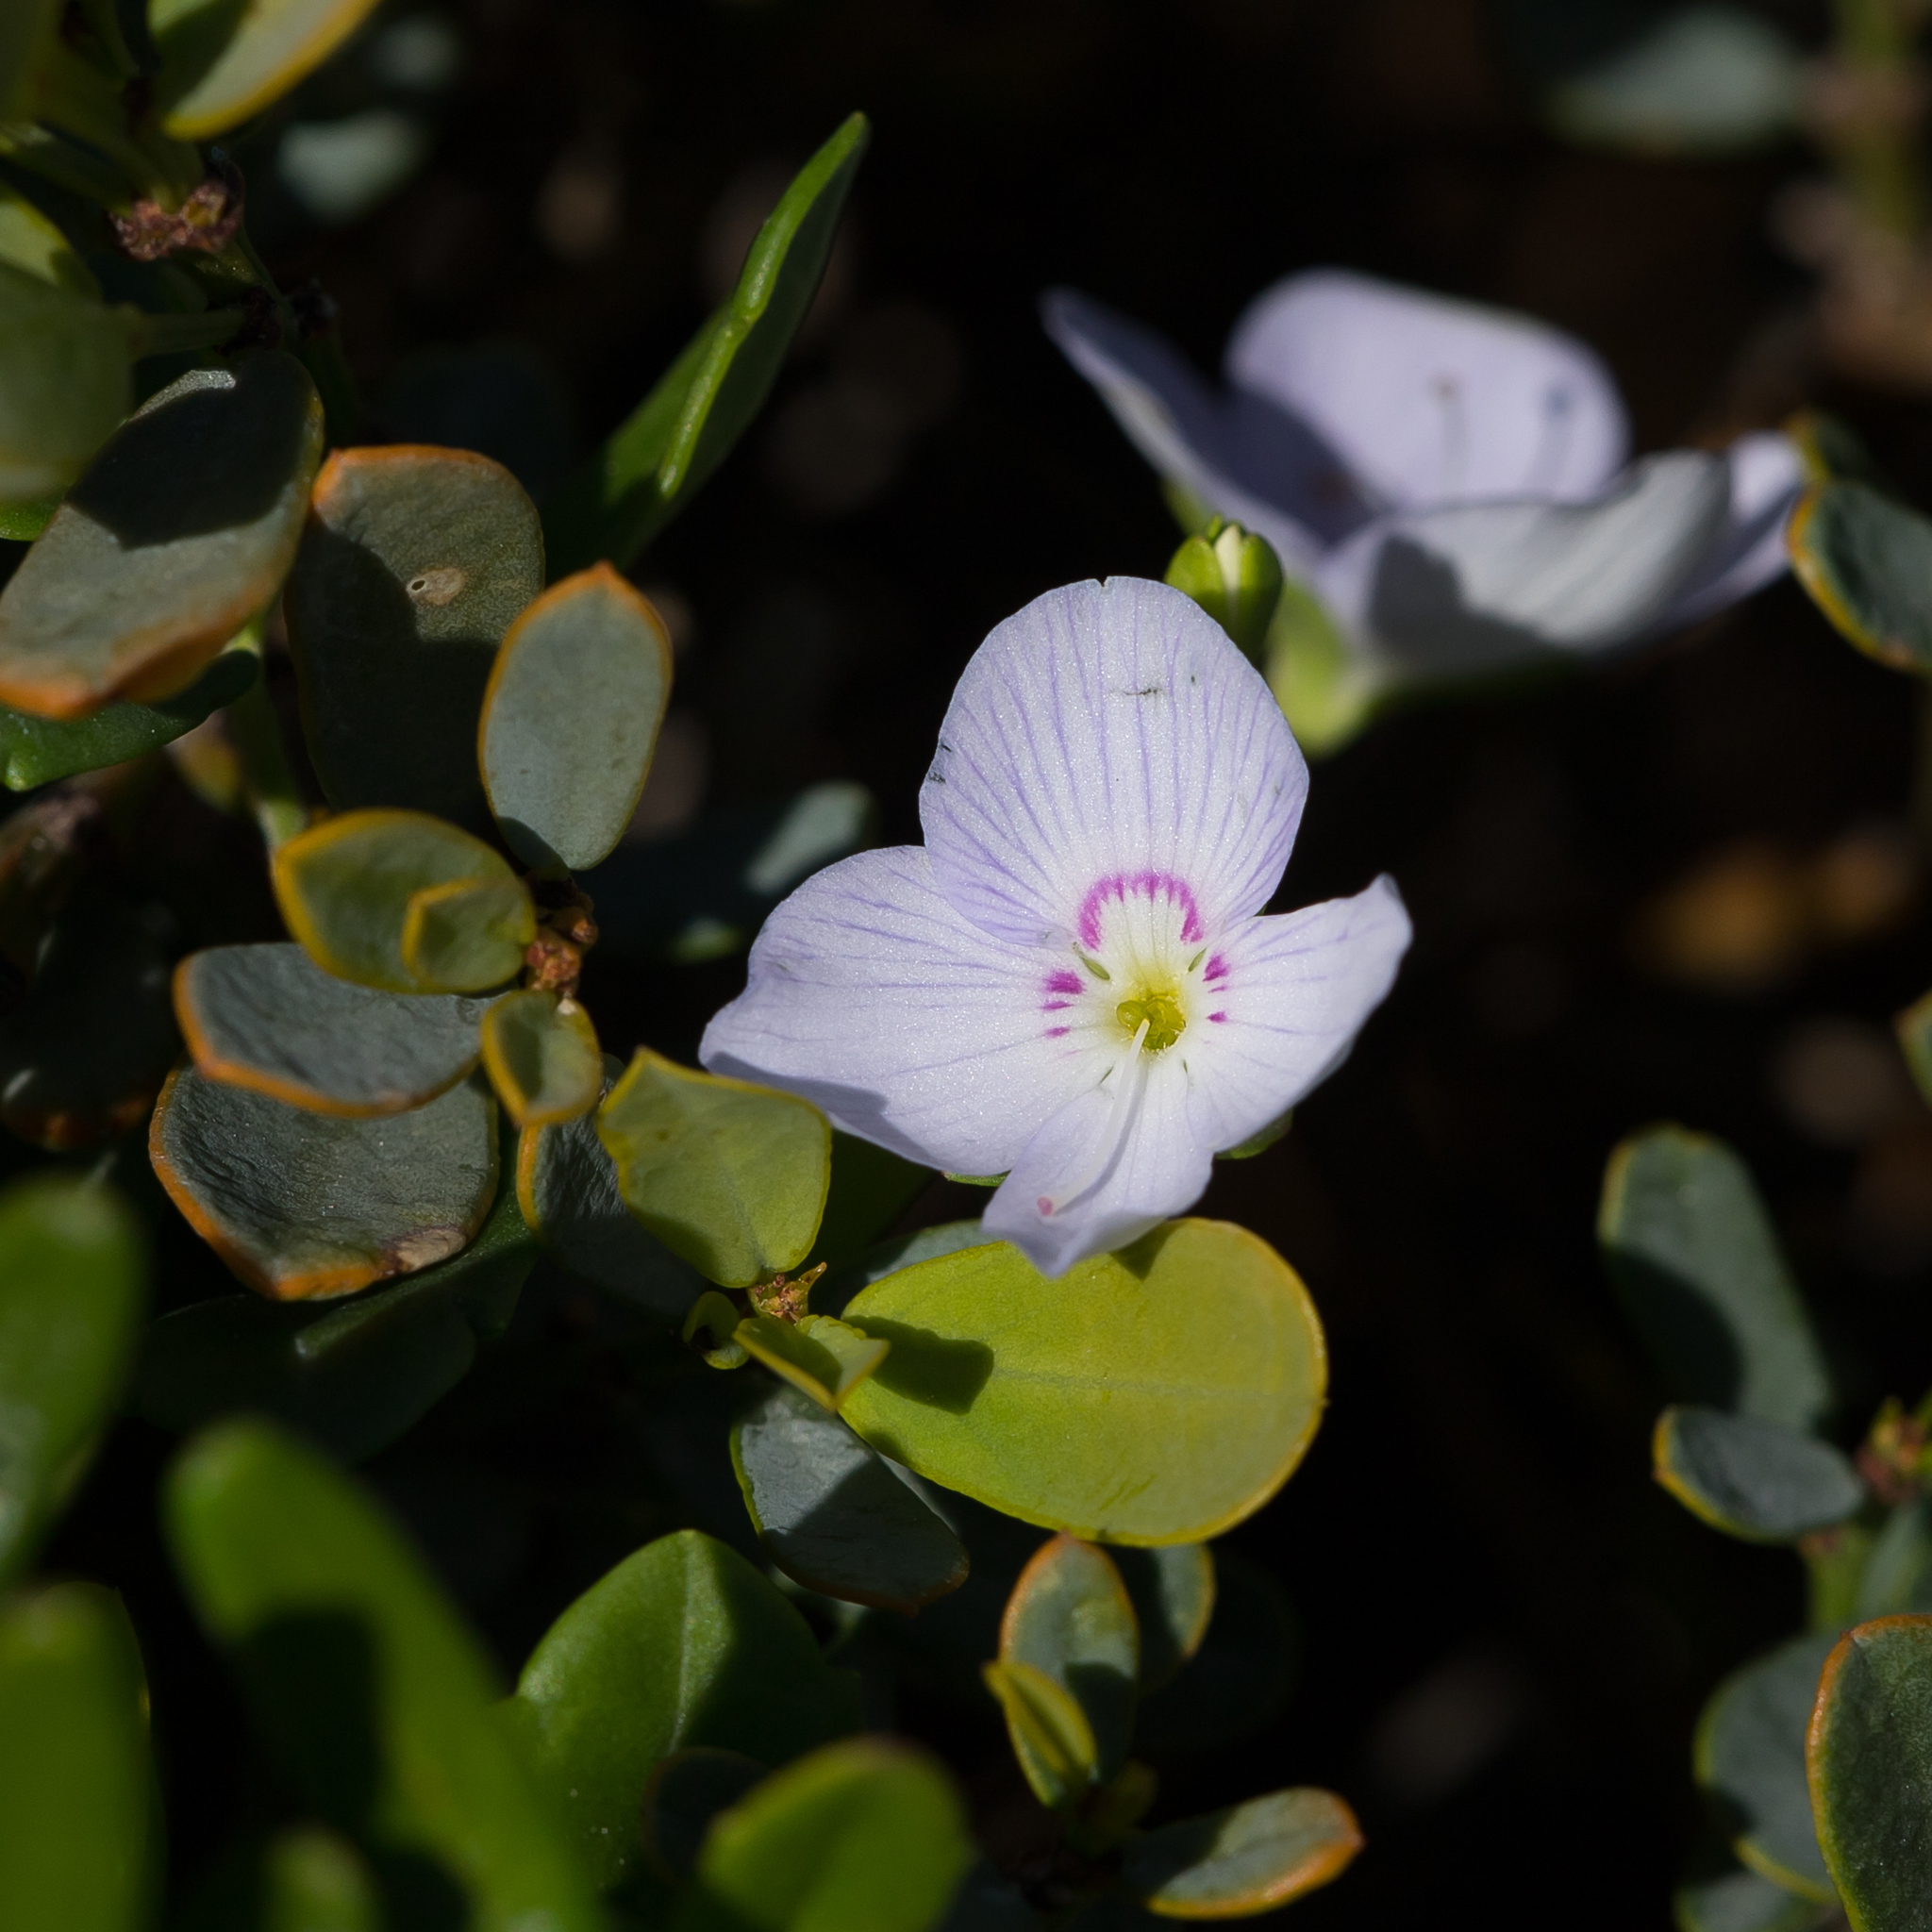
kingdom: Plantae
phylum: Tracheophyta
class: Magnoliopsida
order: Lamiales
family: Plantaginaceae
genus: Veronica
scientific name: Veronica hillebrandii
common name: Coast speedwell
